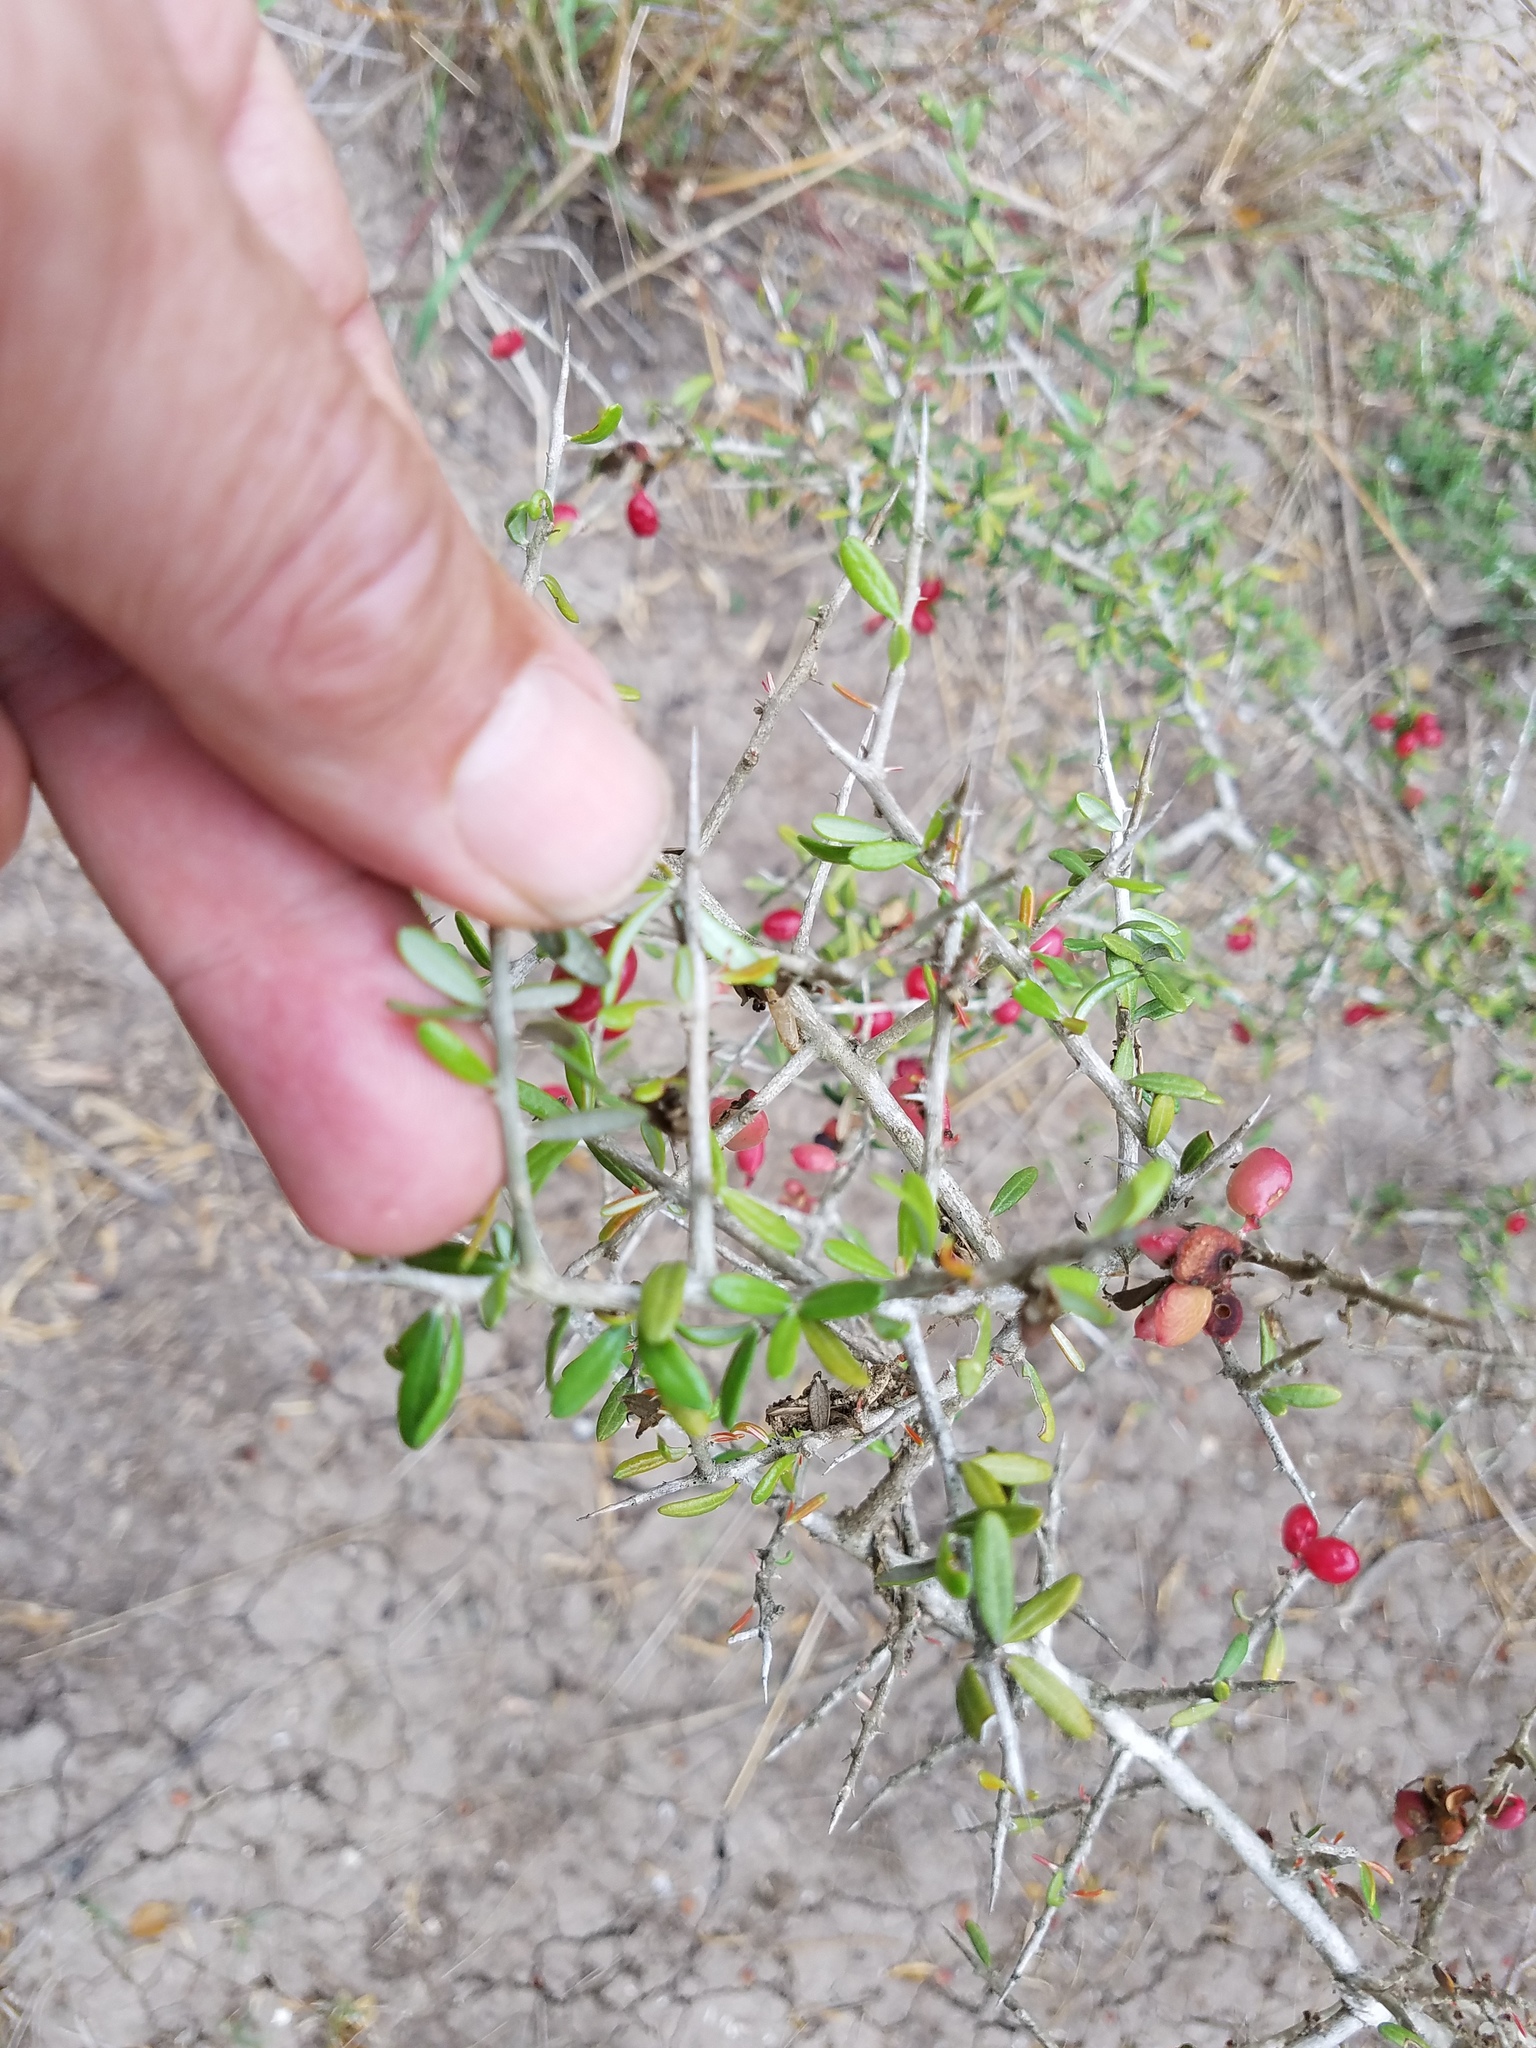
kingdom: Plantae
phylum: Tracheophyta
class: Magnoliopsida
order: Sapindales
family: Simaroubaceae
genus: Castela
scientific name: Castela erecta
